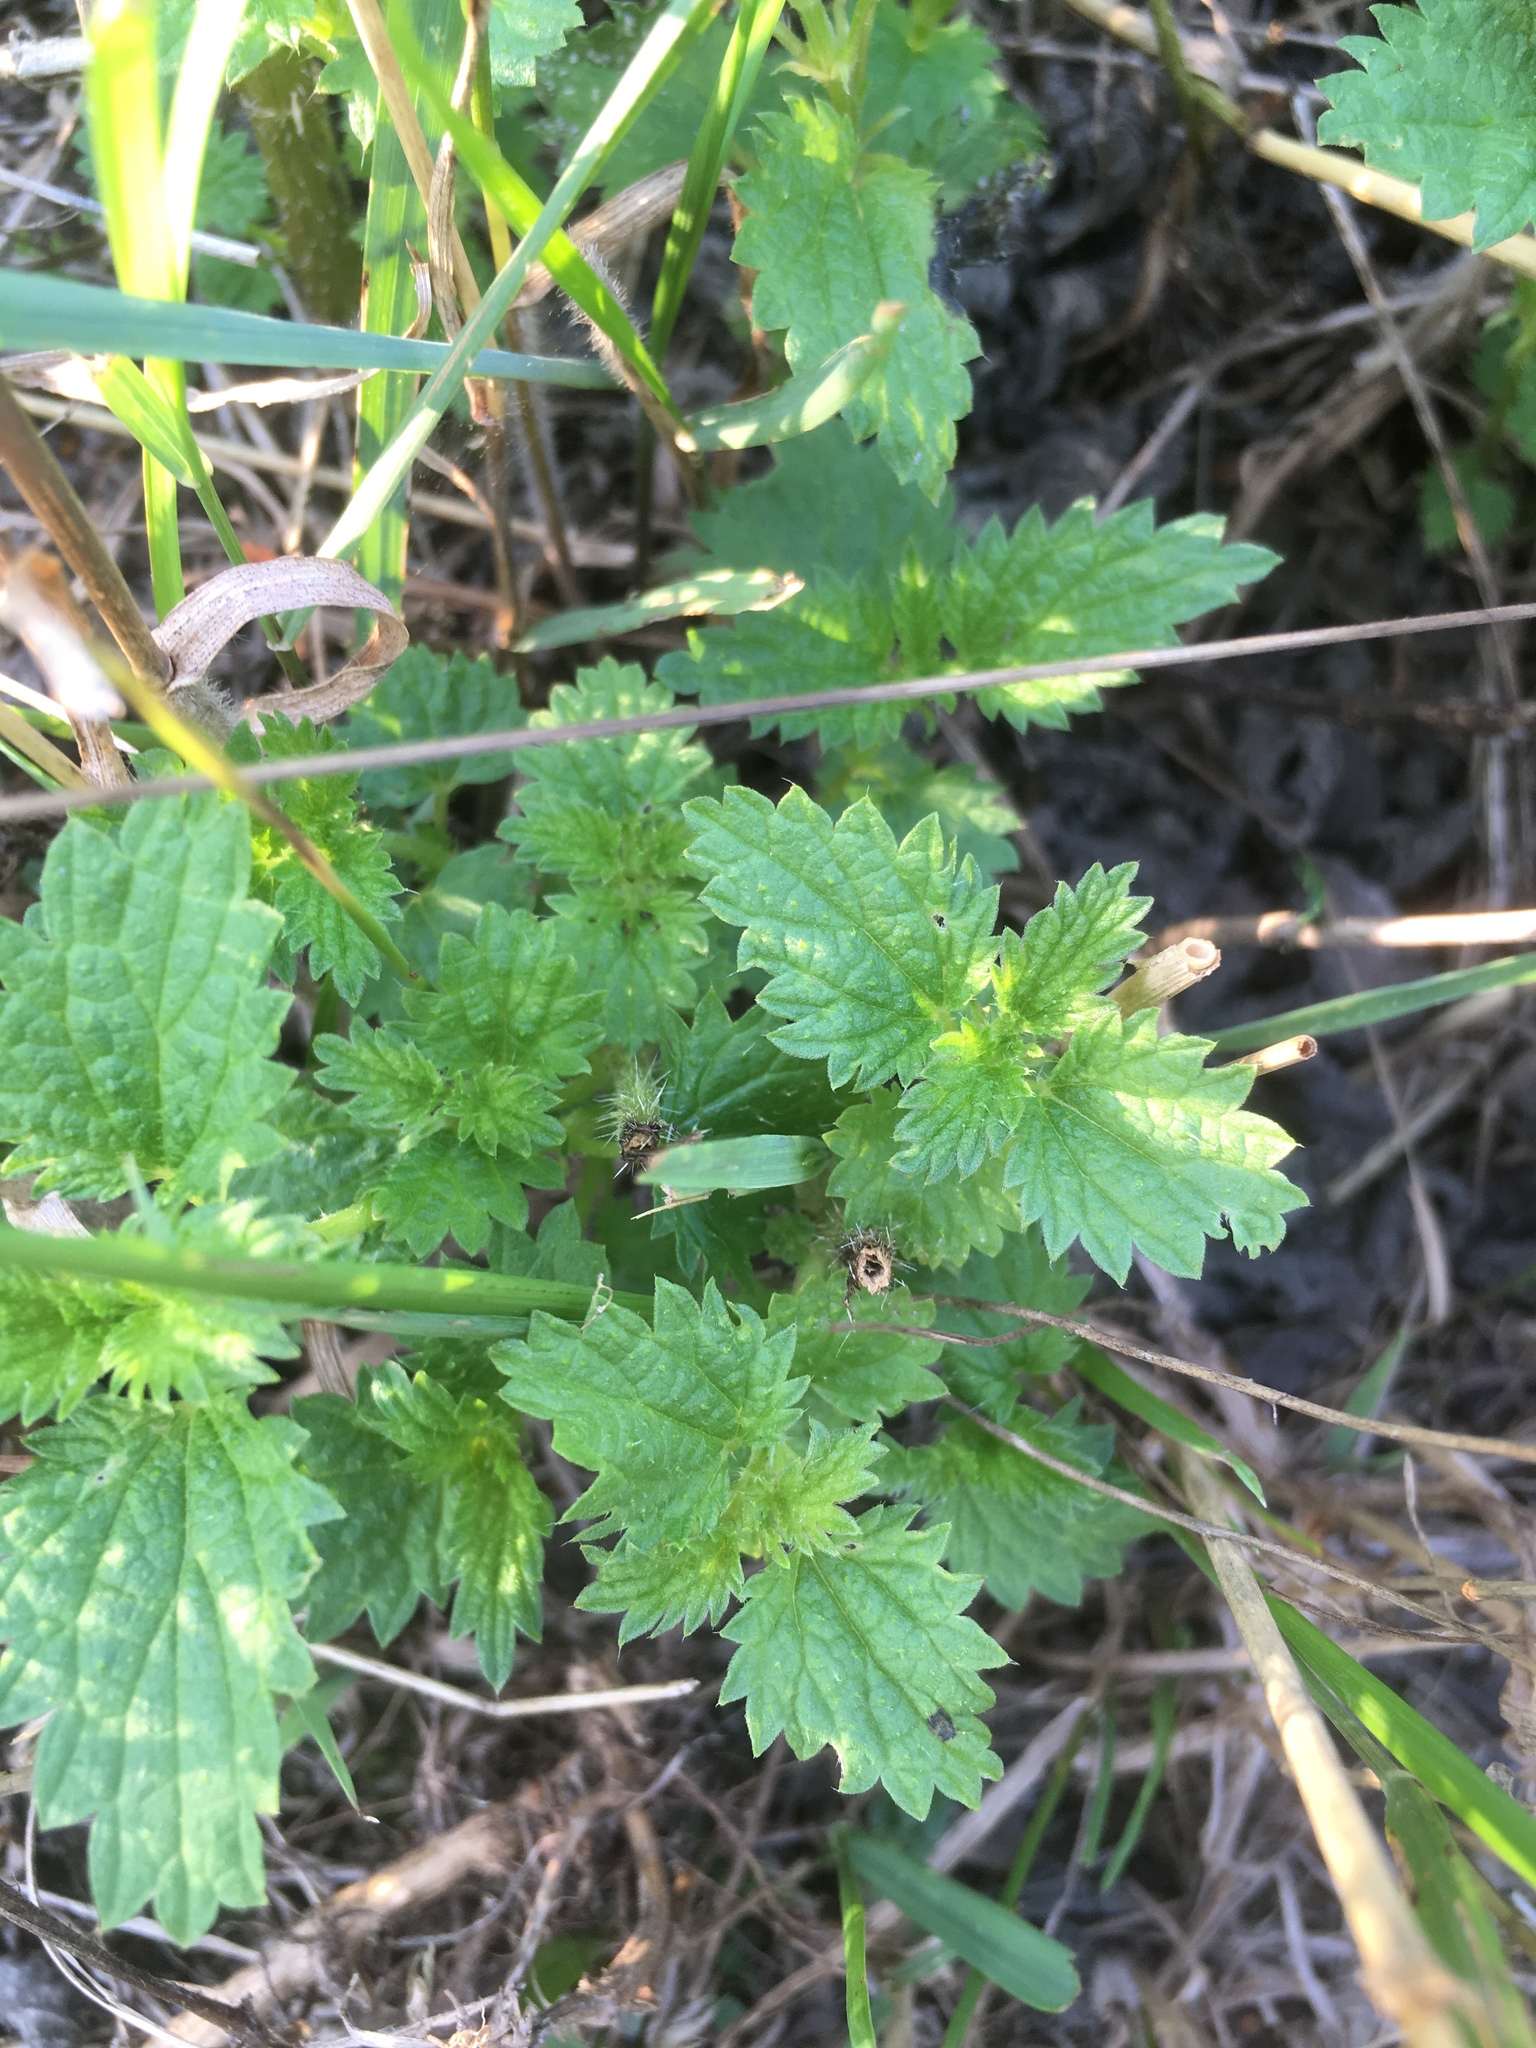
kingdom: Plantae
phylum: Tracheophyta
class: Magnoliopsida
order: Rosales
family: Urticaceae
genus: Urtica
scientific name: Urtica dioica
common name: Common nettle
